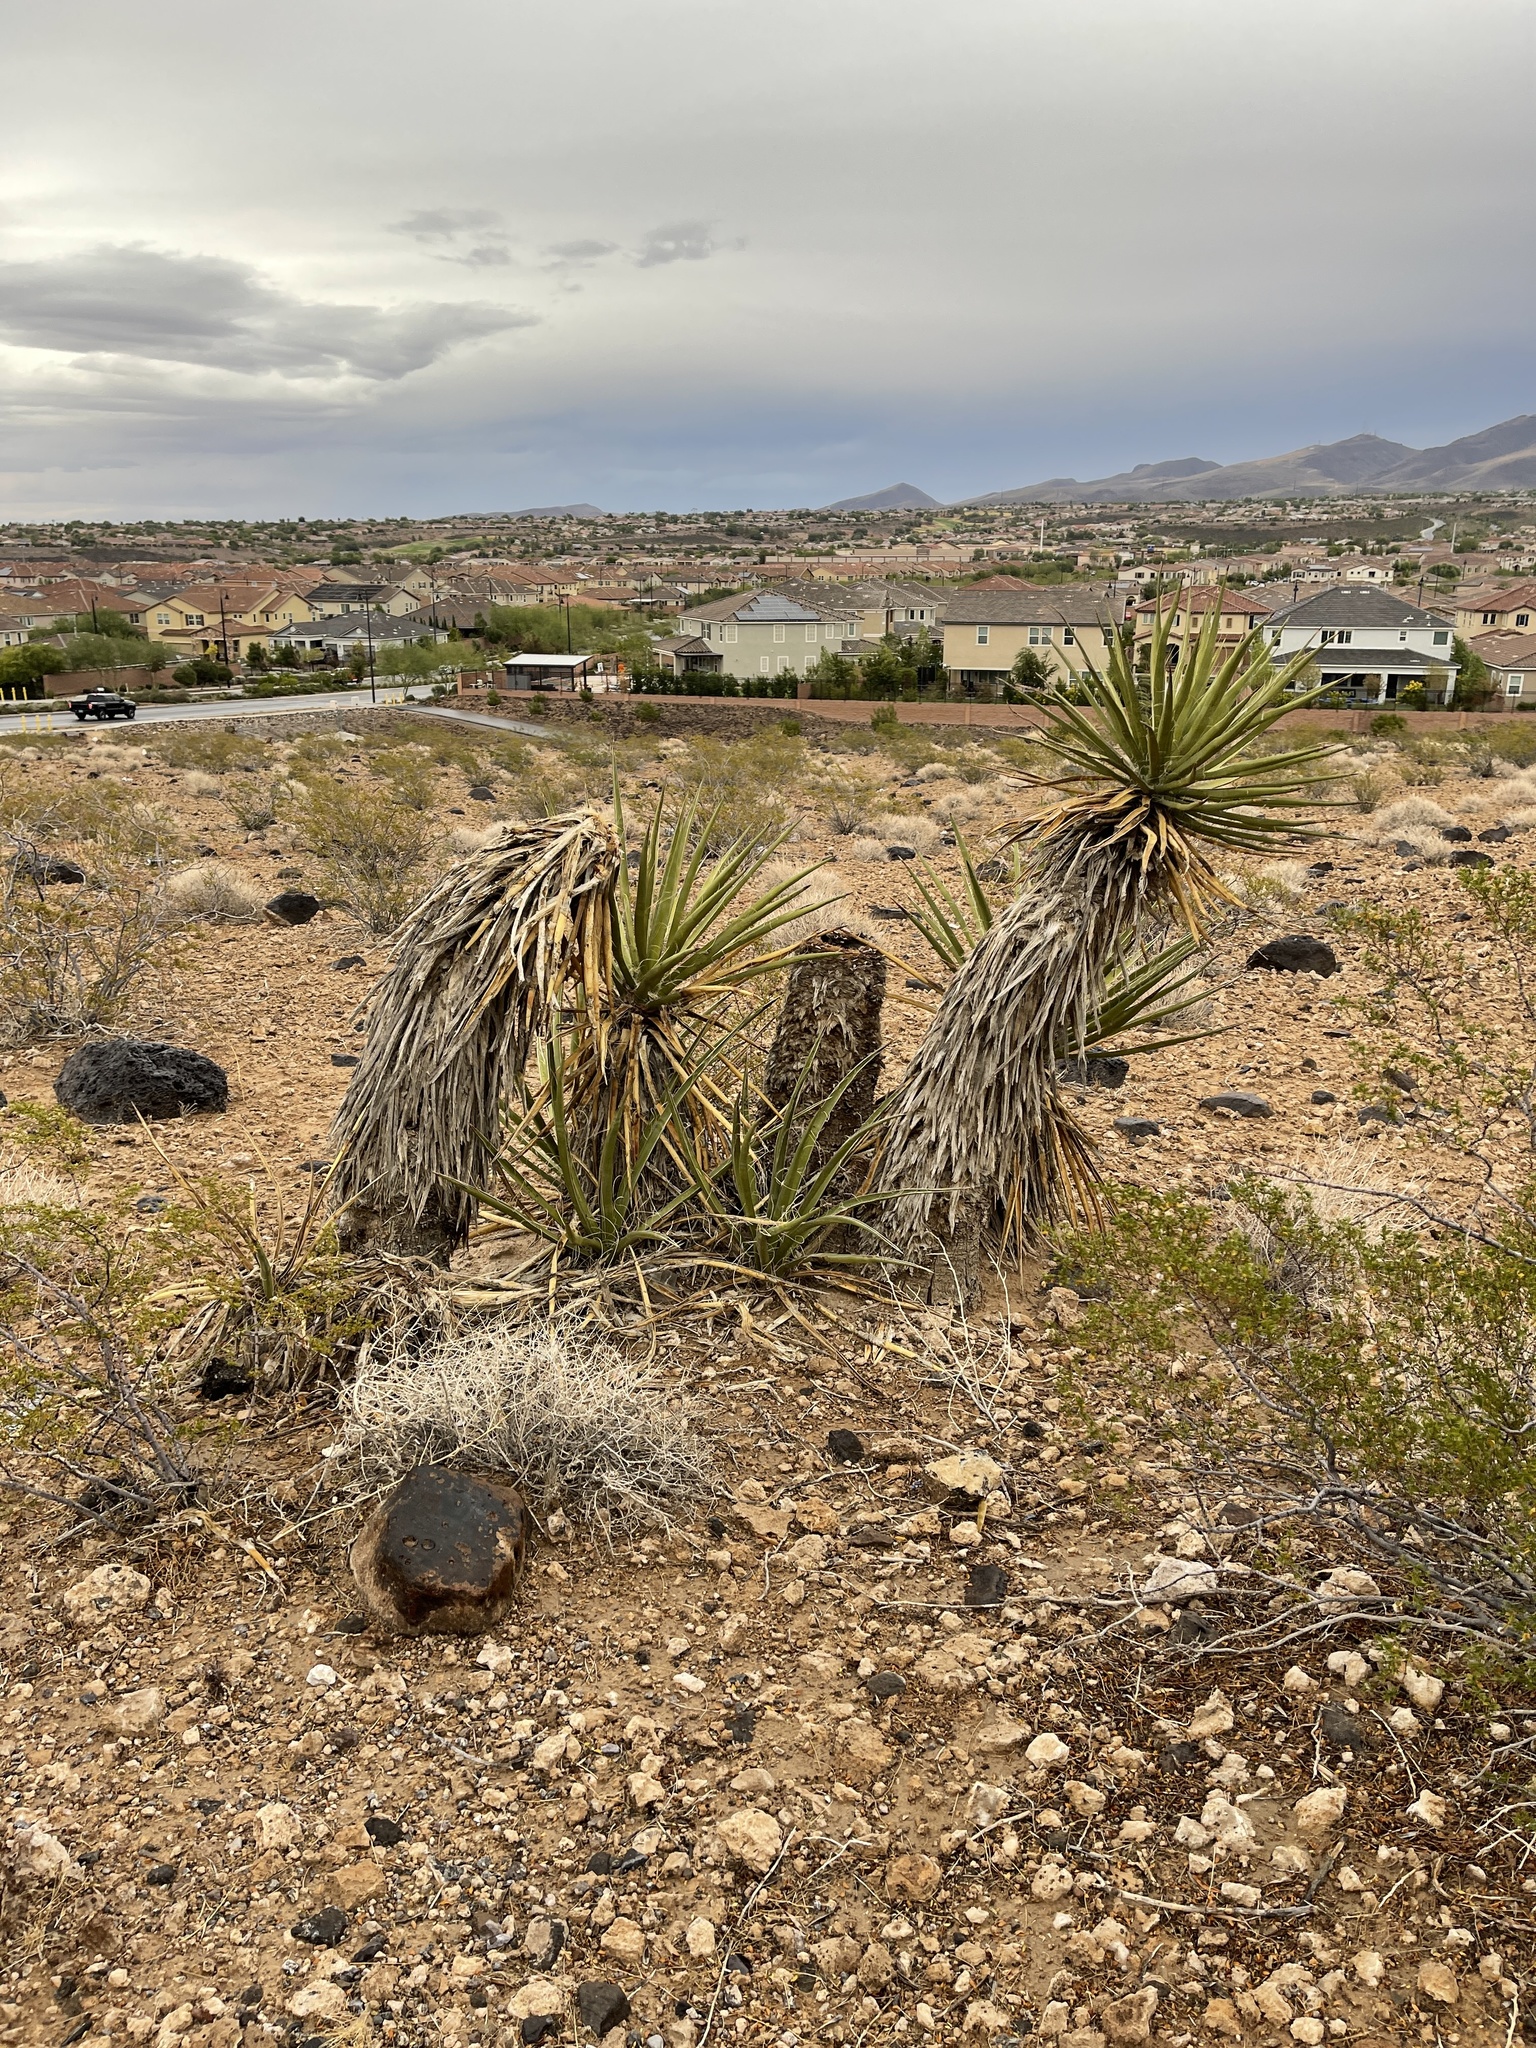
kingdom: Plantae
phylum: Tracheophyta
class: Liliopsida
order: Asparagales
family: Asparagaceae
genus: Yucca
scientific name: Yucca schidigera
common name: Mojave yucca
